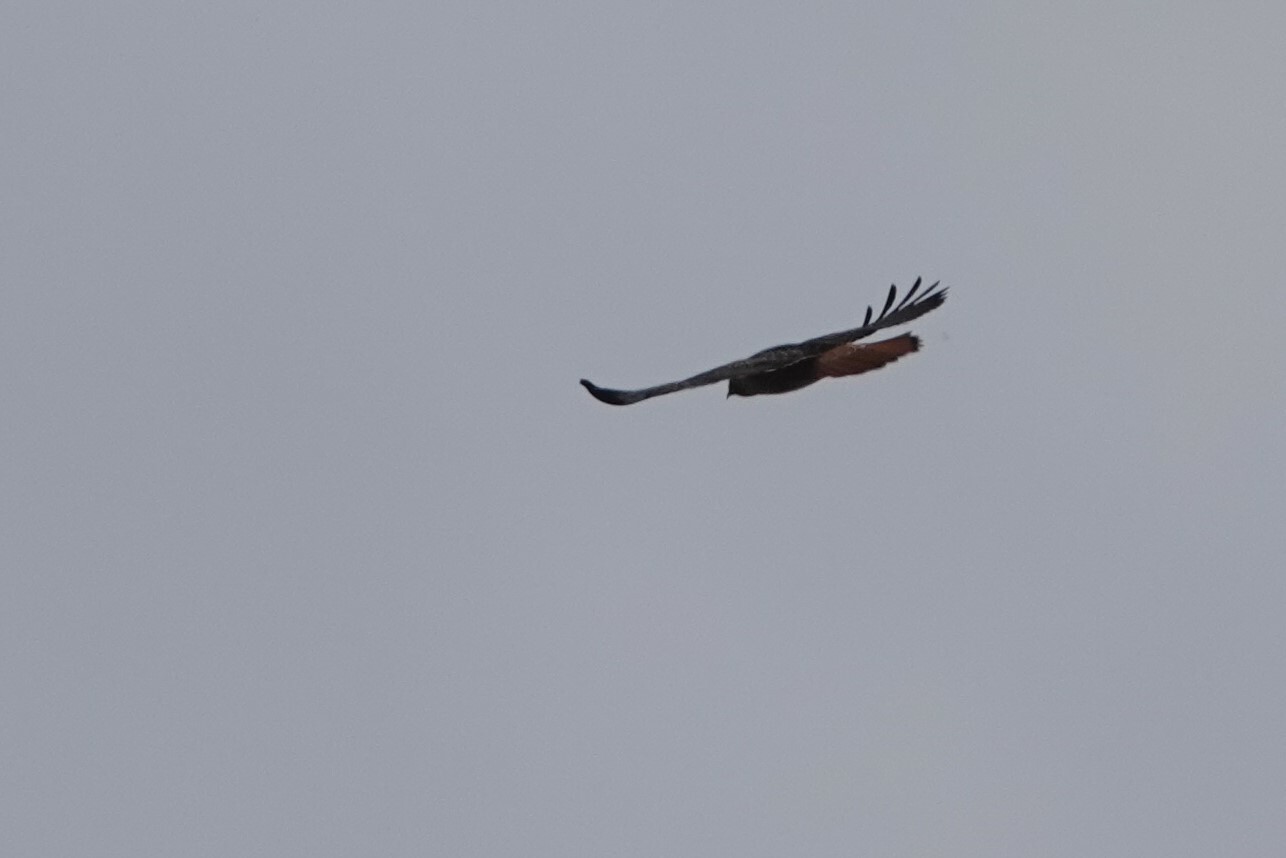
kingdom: Animalia
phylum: Chordata
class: Aves
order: Accipitriformes
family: Accipitridae
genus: Buteo
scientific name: Buteo jamaicensis
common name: Red-tailed hawk
